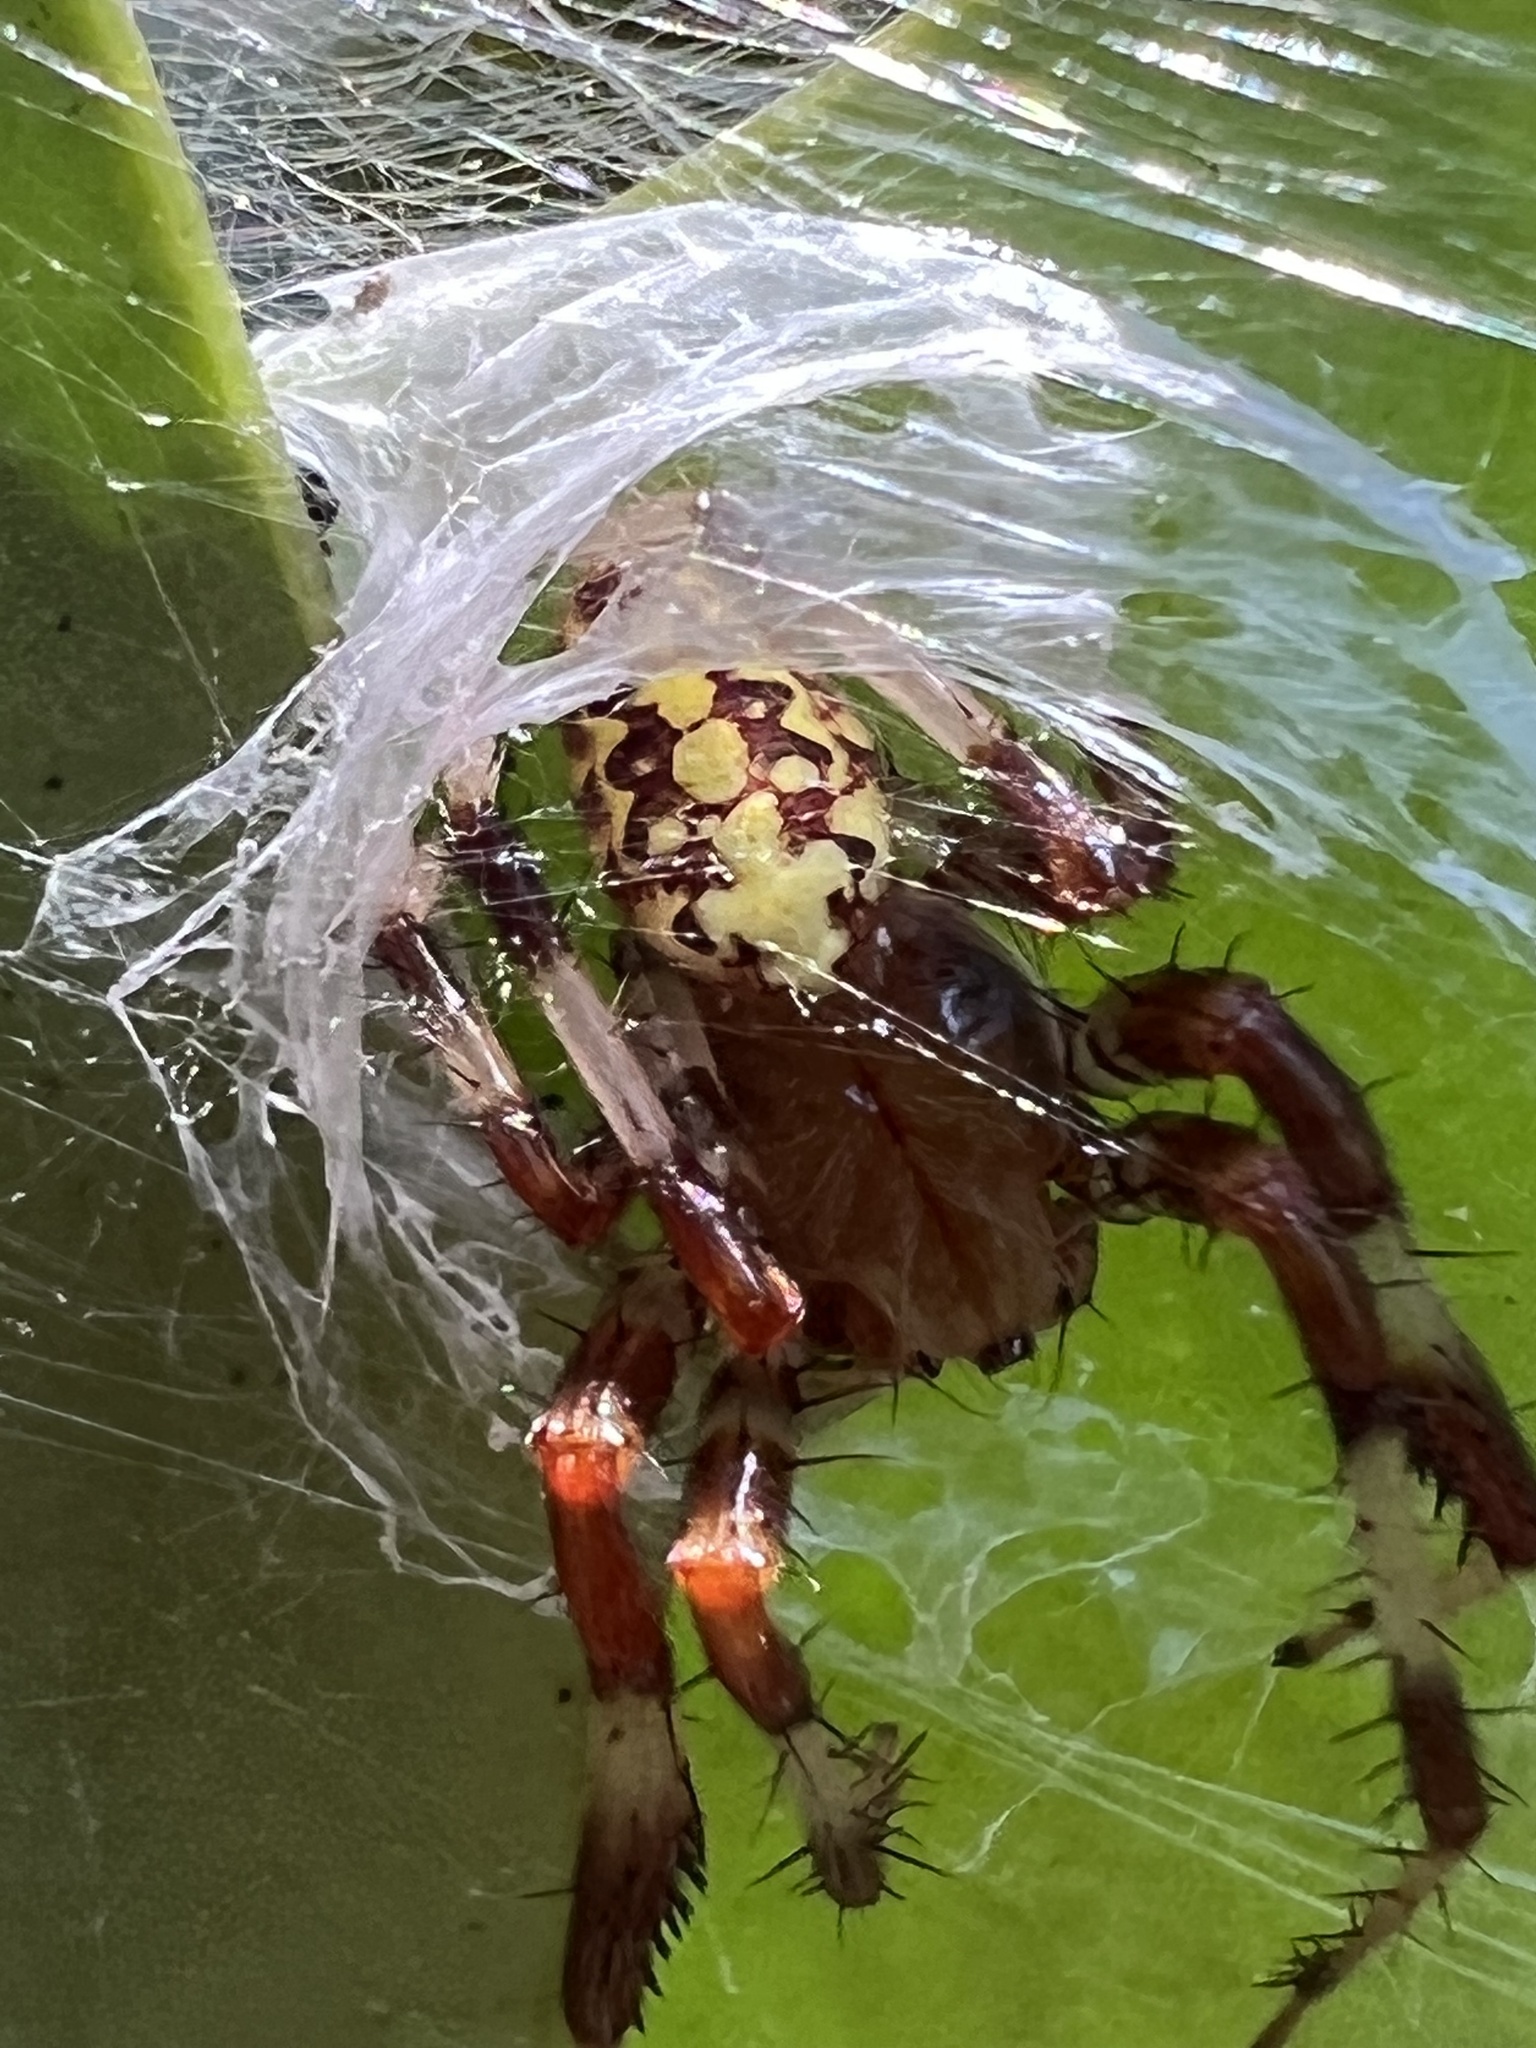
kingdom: Animalia
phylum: Arthropoda
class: Arachnida
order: Araneae
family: Araneidae
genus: Araneus
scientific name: Araneus marmoreus
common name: Marbled orbweaver
